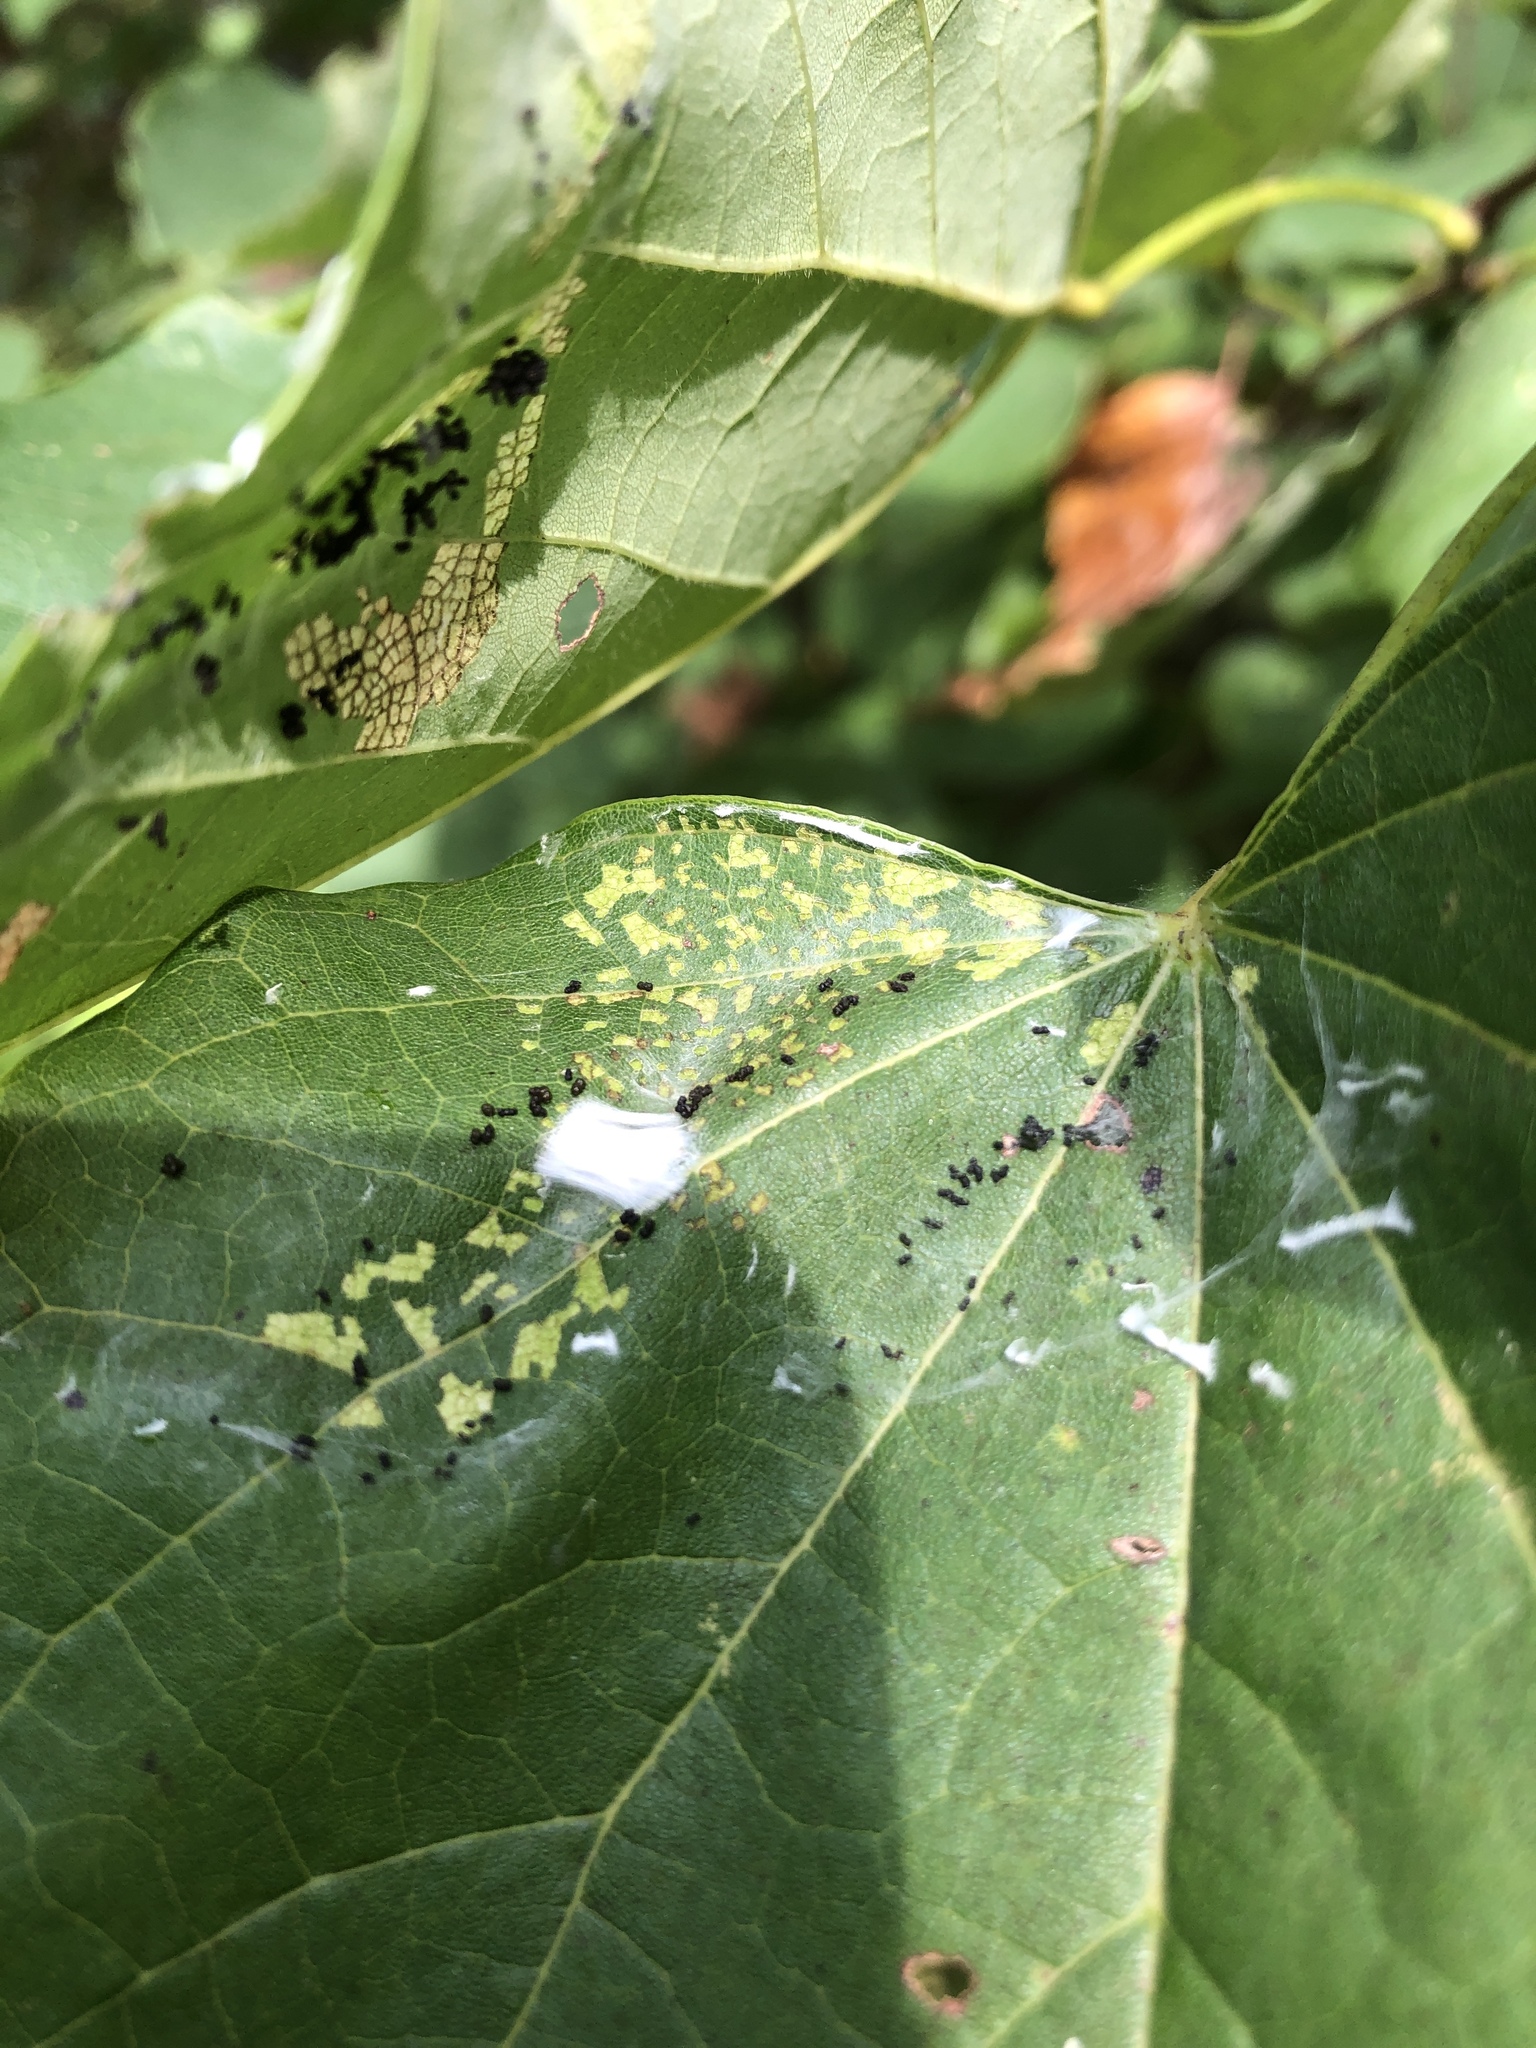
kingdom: Animalia
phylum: Arthropoda
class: Insecta
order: Lepidoptera
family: Gelechiidae
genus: Fascista
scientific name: Fascista cercerisella
